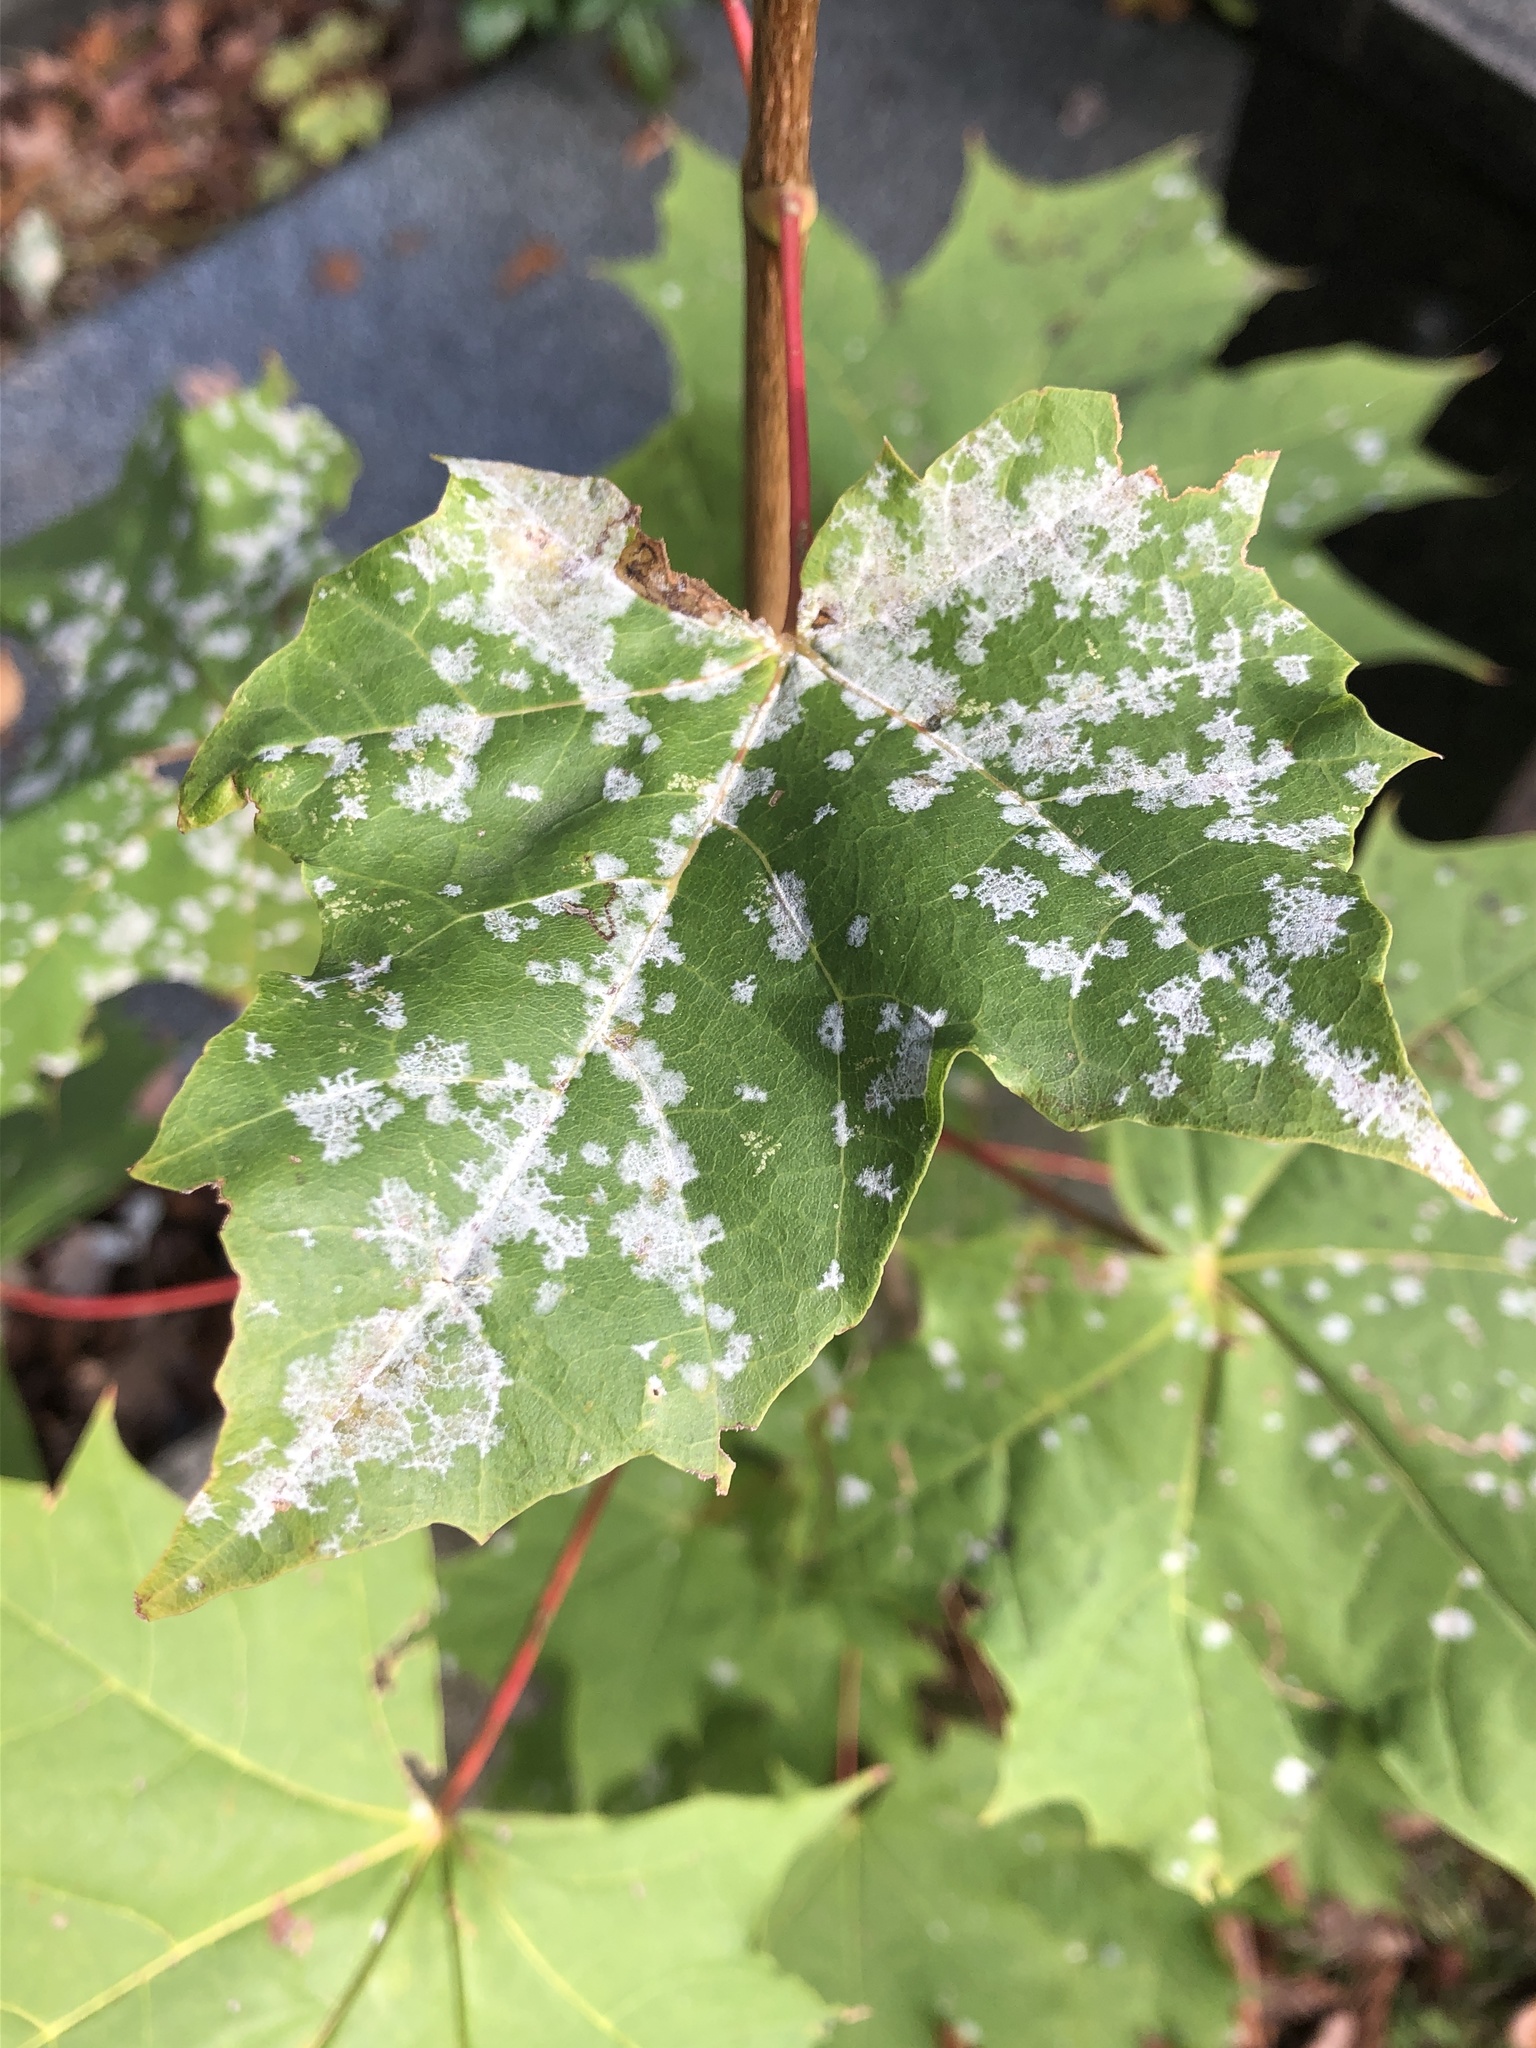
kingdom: Fungi
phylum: Ascomycota
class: Leotiomycetes
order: Helotiales
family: Erysiphaceae
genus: Sawadaea
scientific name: Sawadaea tulasnei
